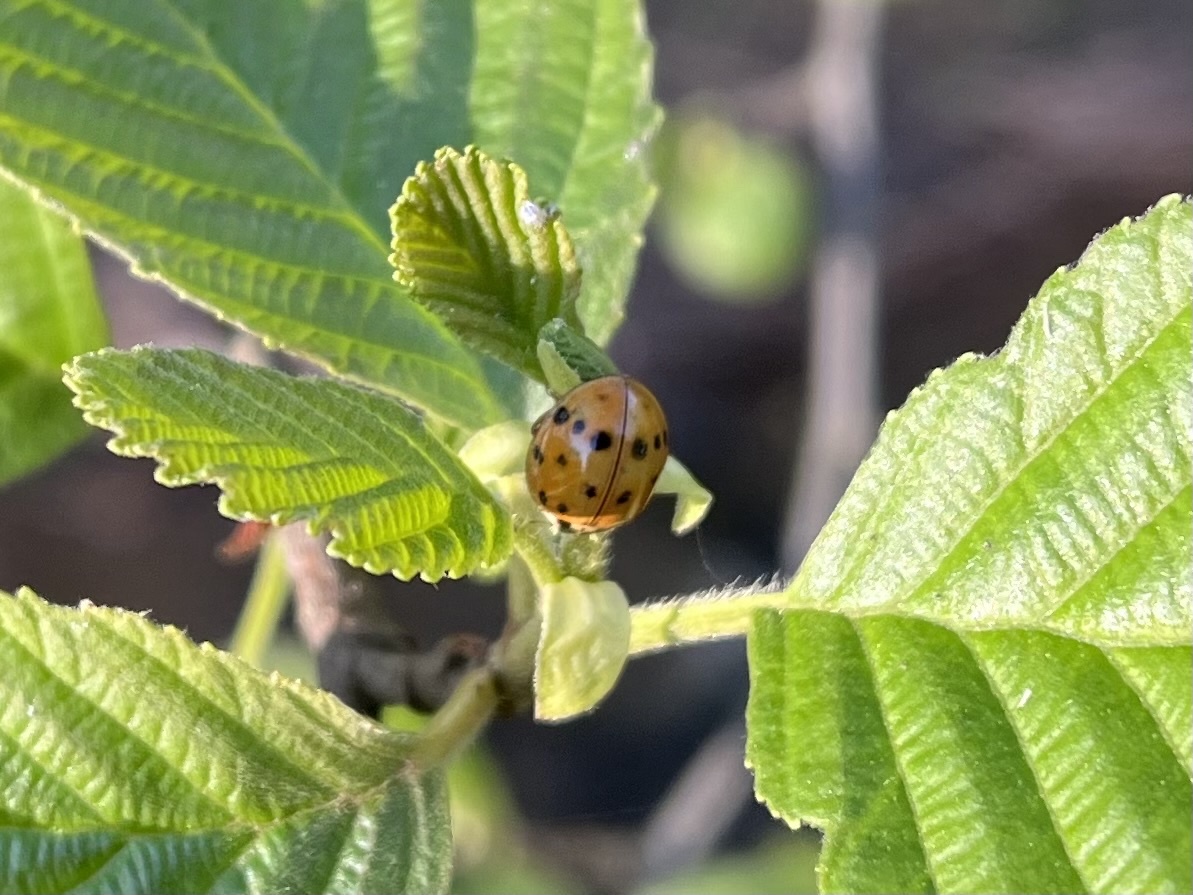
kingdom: Animalia
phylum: Arthropoda
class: Insecta
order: Coleoptera
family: Coccinellidae
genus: Harmonia
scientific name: Harmonia axyridis
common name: Harlequin ladybird
